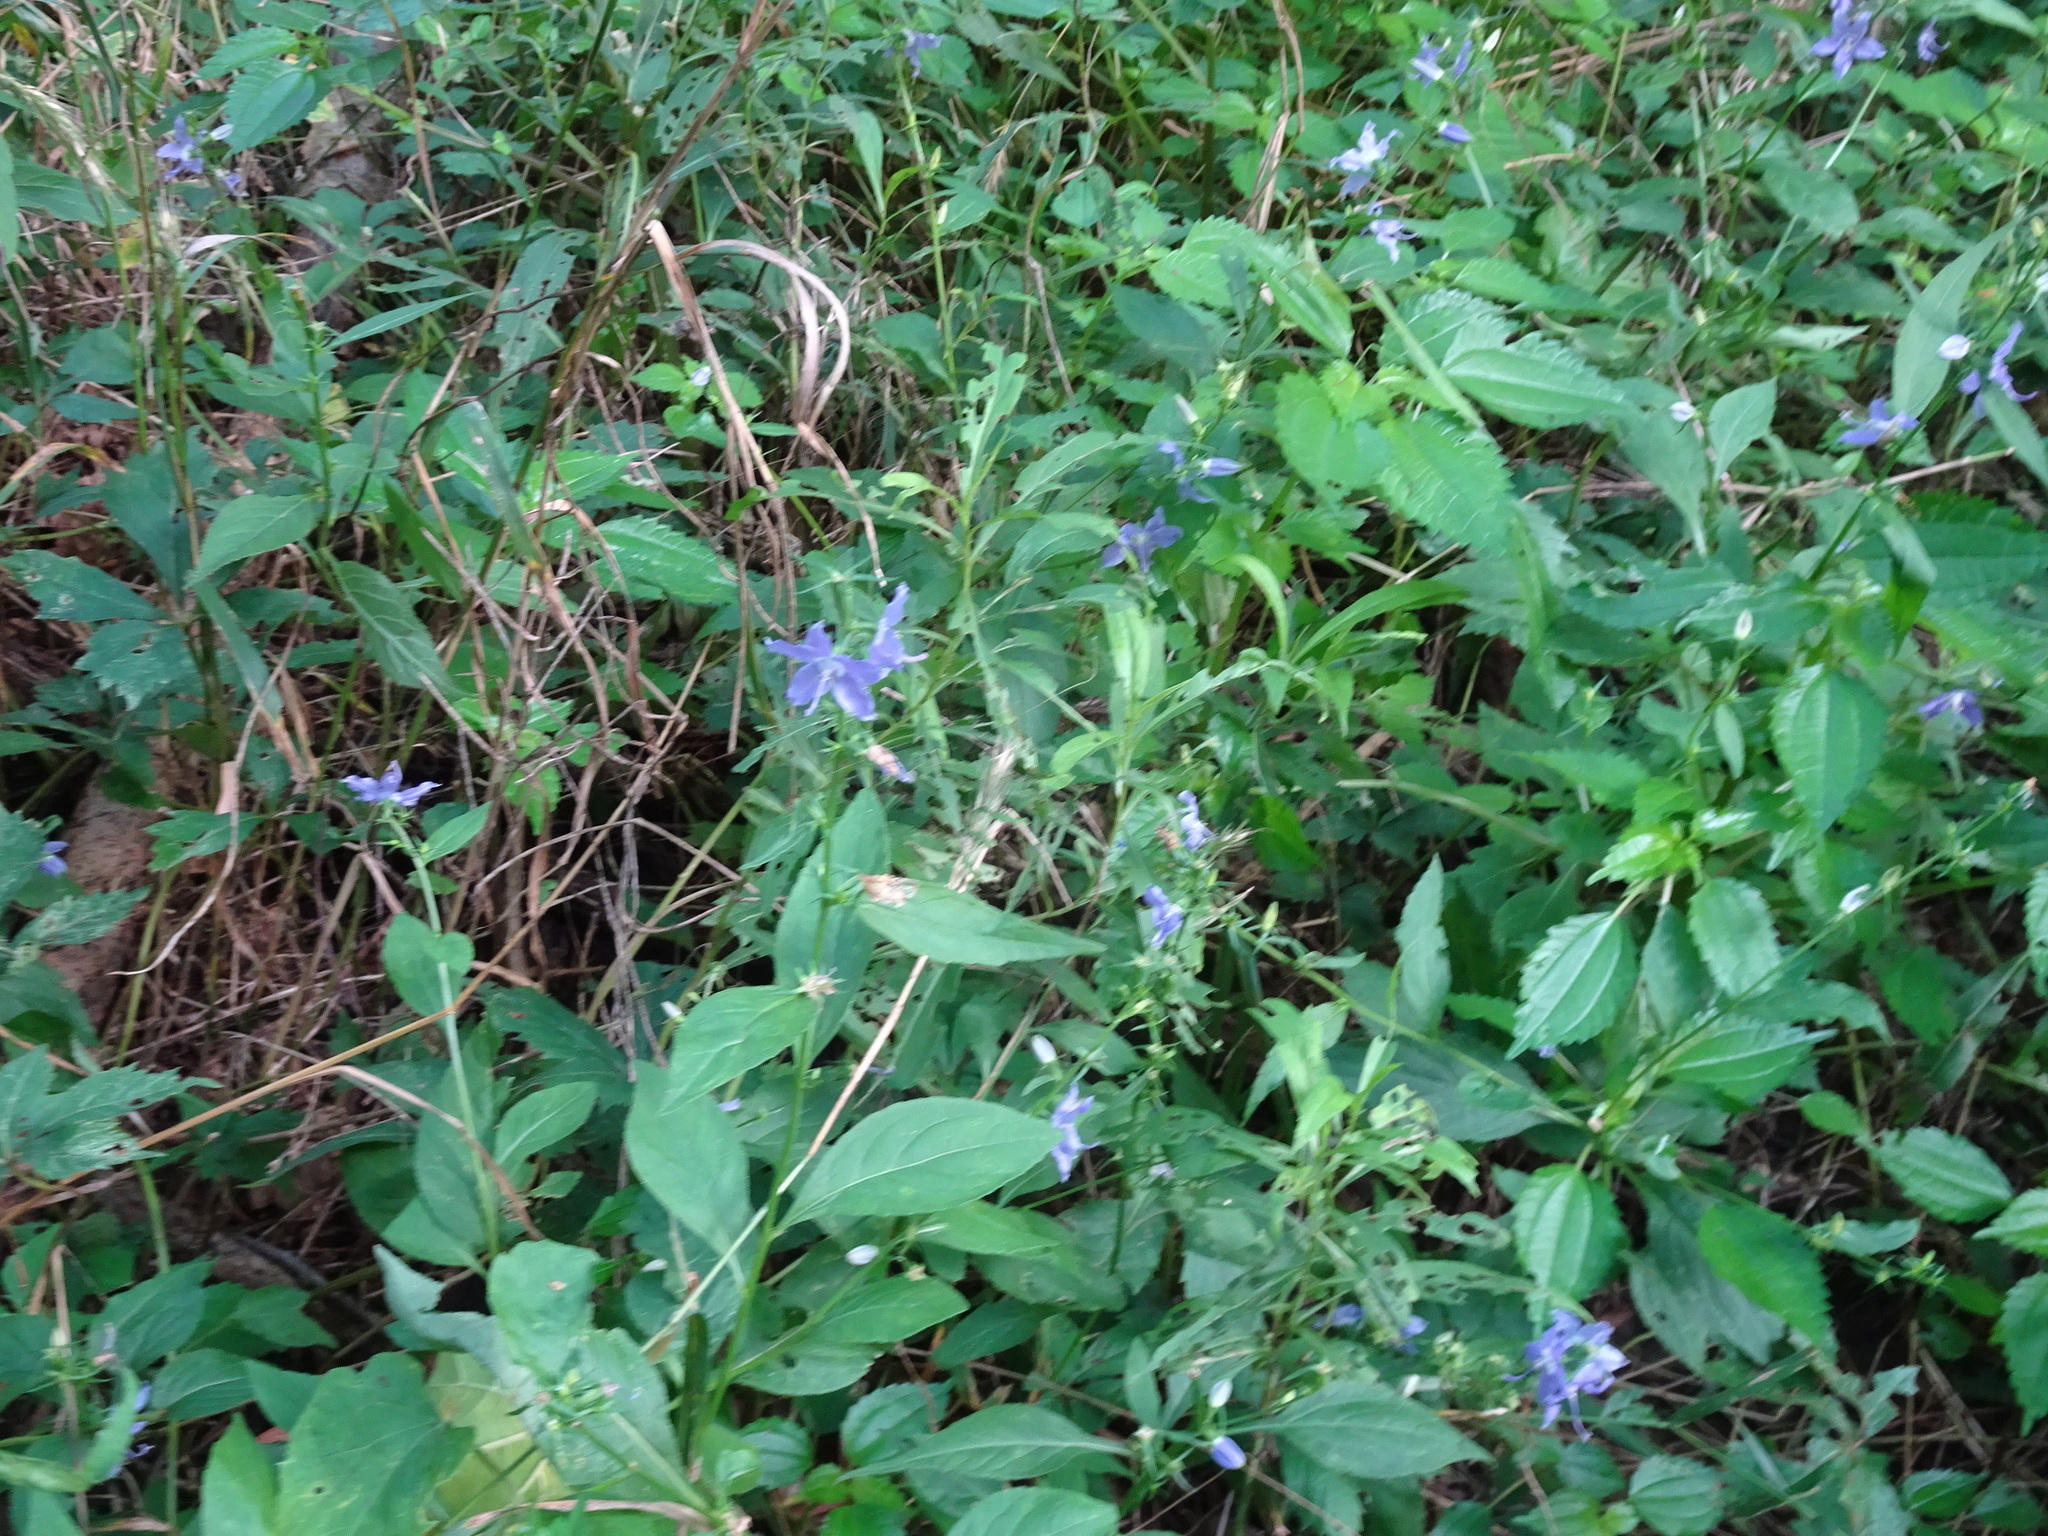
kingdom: Plantae
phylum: Tracheophyta
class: Magnoliopsida
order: Asterales
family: Campanulaceae
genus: Campanulastrum
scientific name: Campanulastrum americanum
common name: American bellflower
